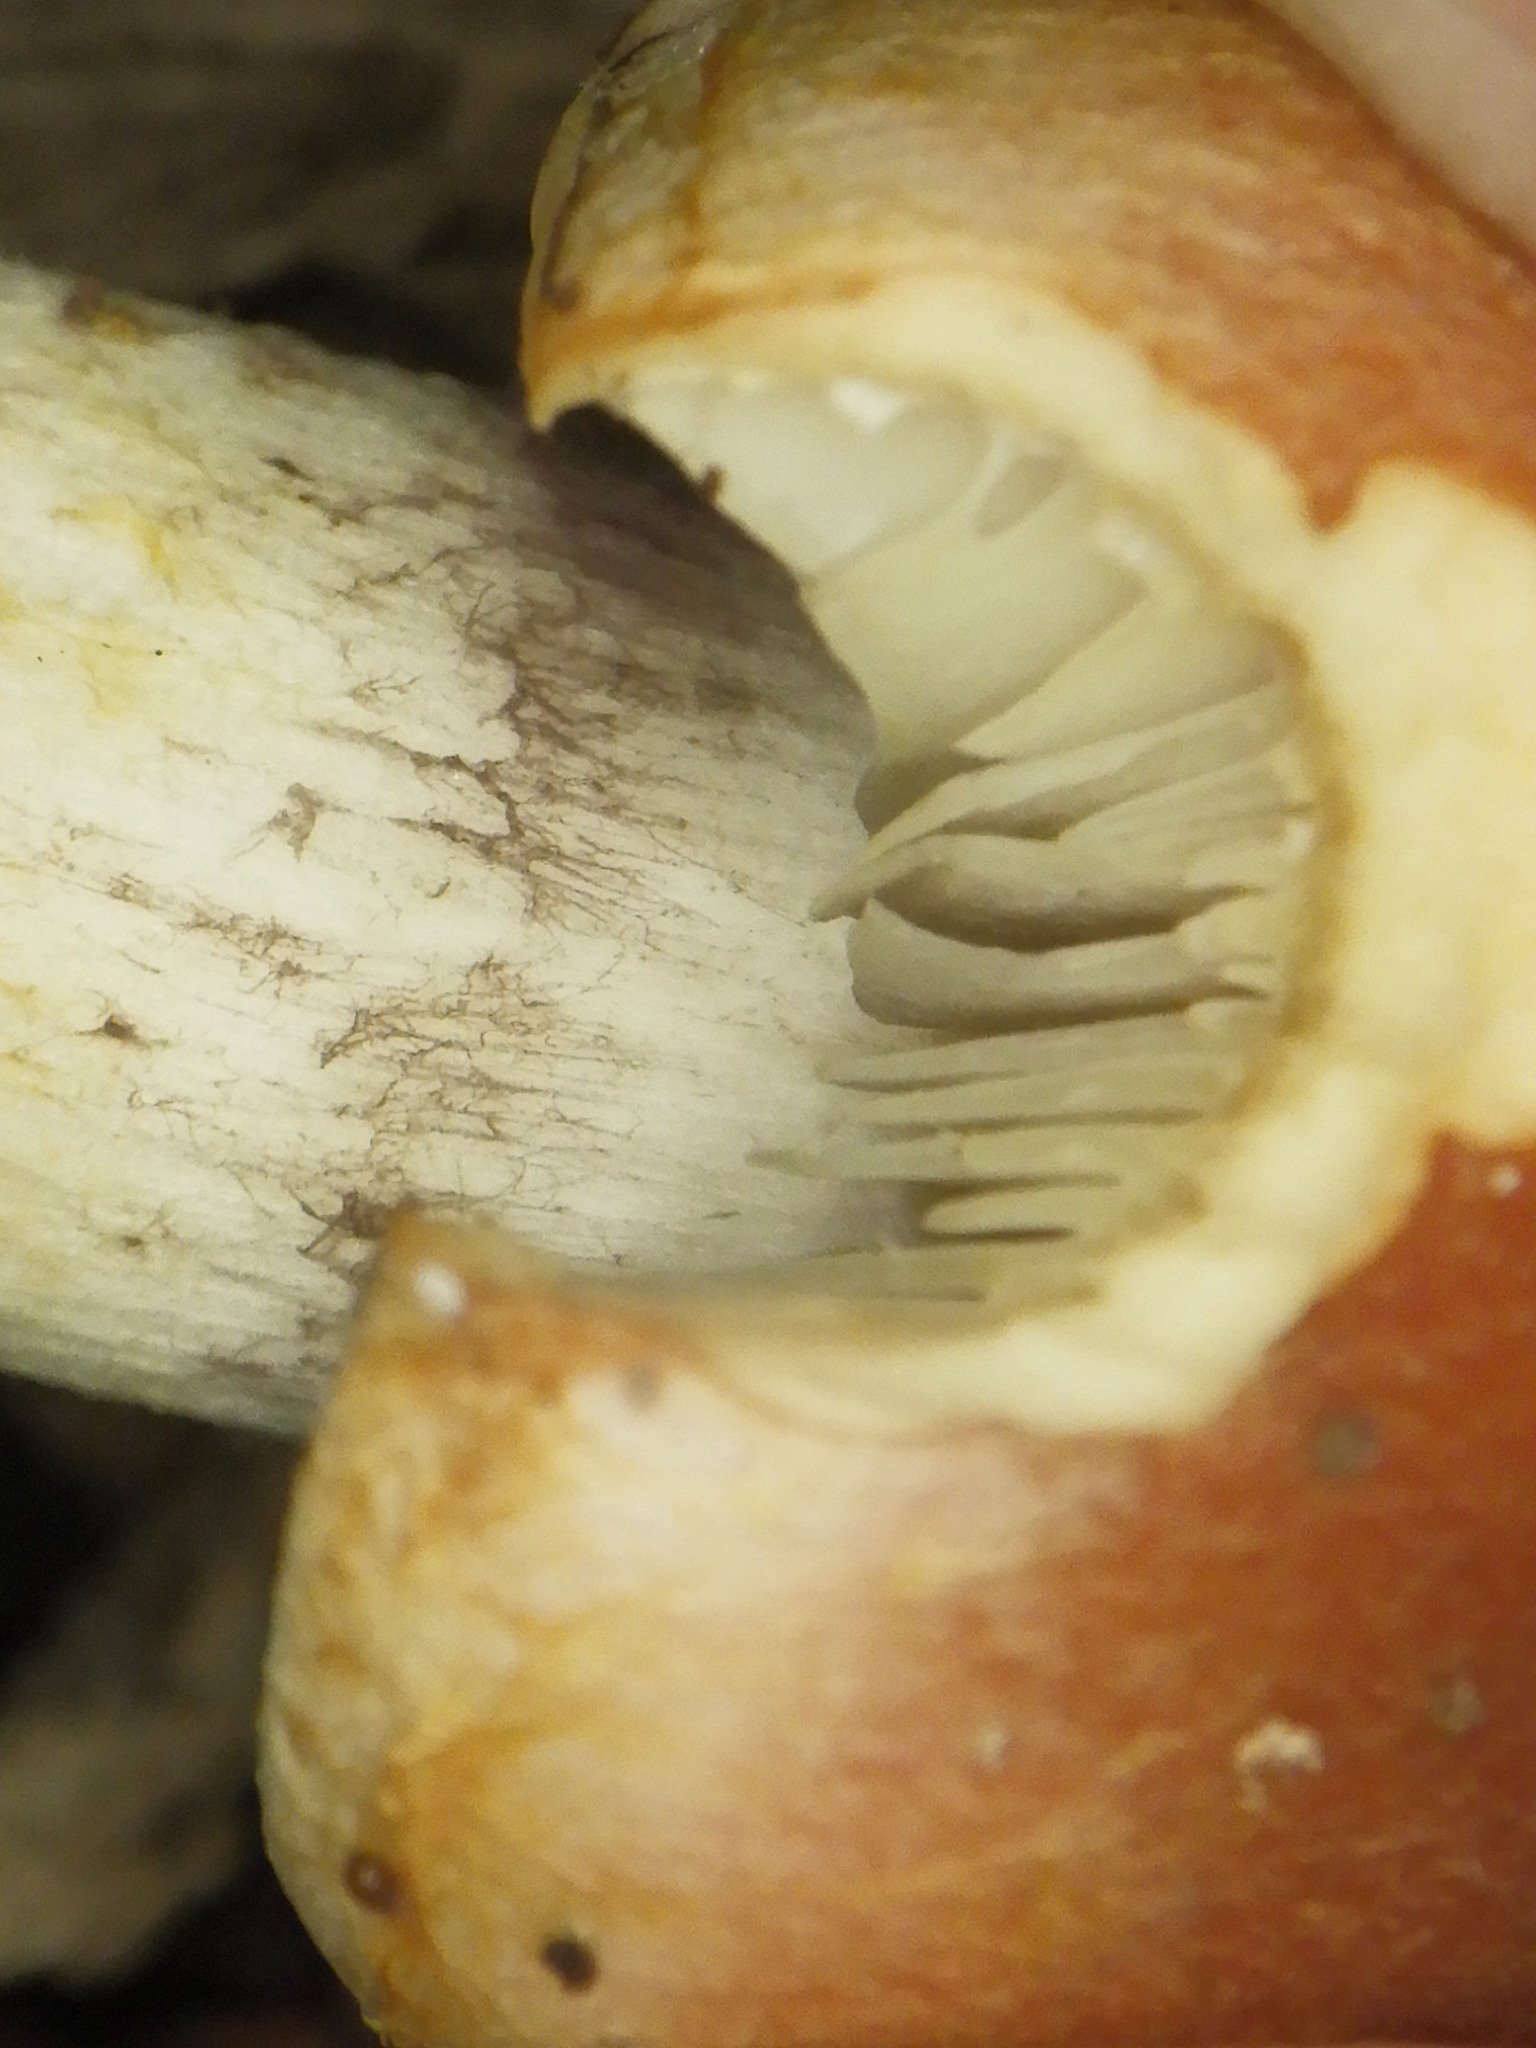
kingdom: Fungi
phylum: Basidiomycota
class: Agaricomycetes
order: Agaricales
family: Strophariaceae
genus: Hypholoma
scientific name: Hypholoma lateritium
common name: Brick caps
